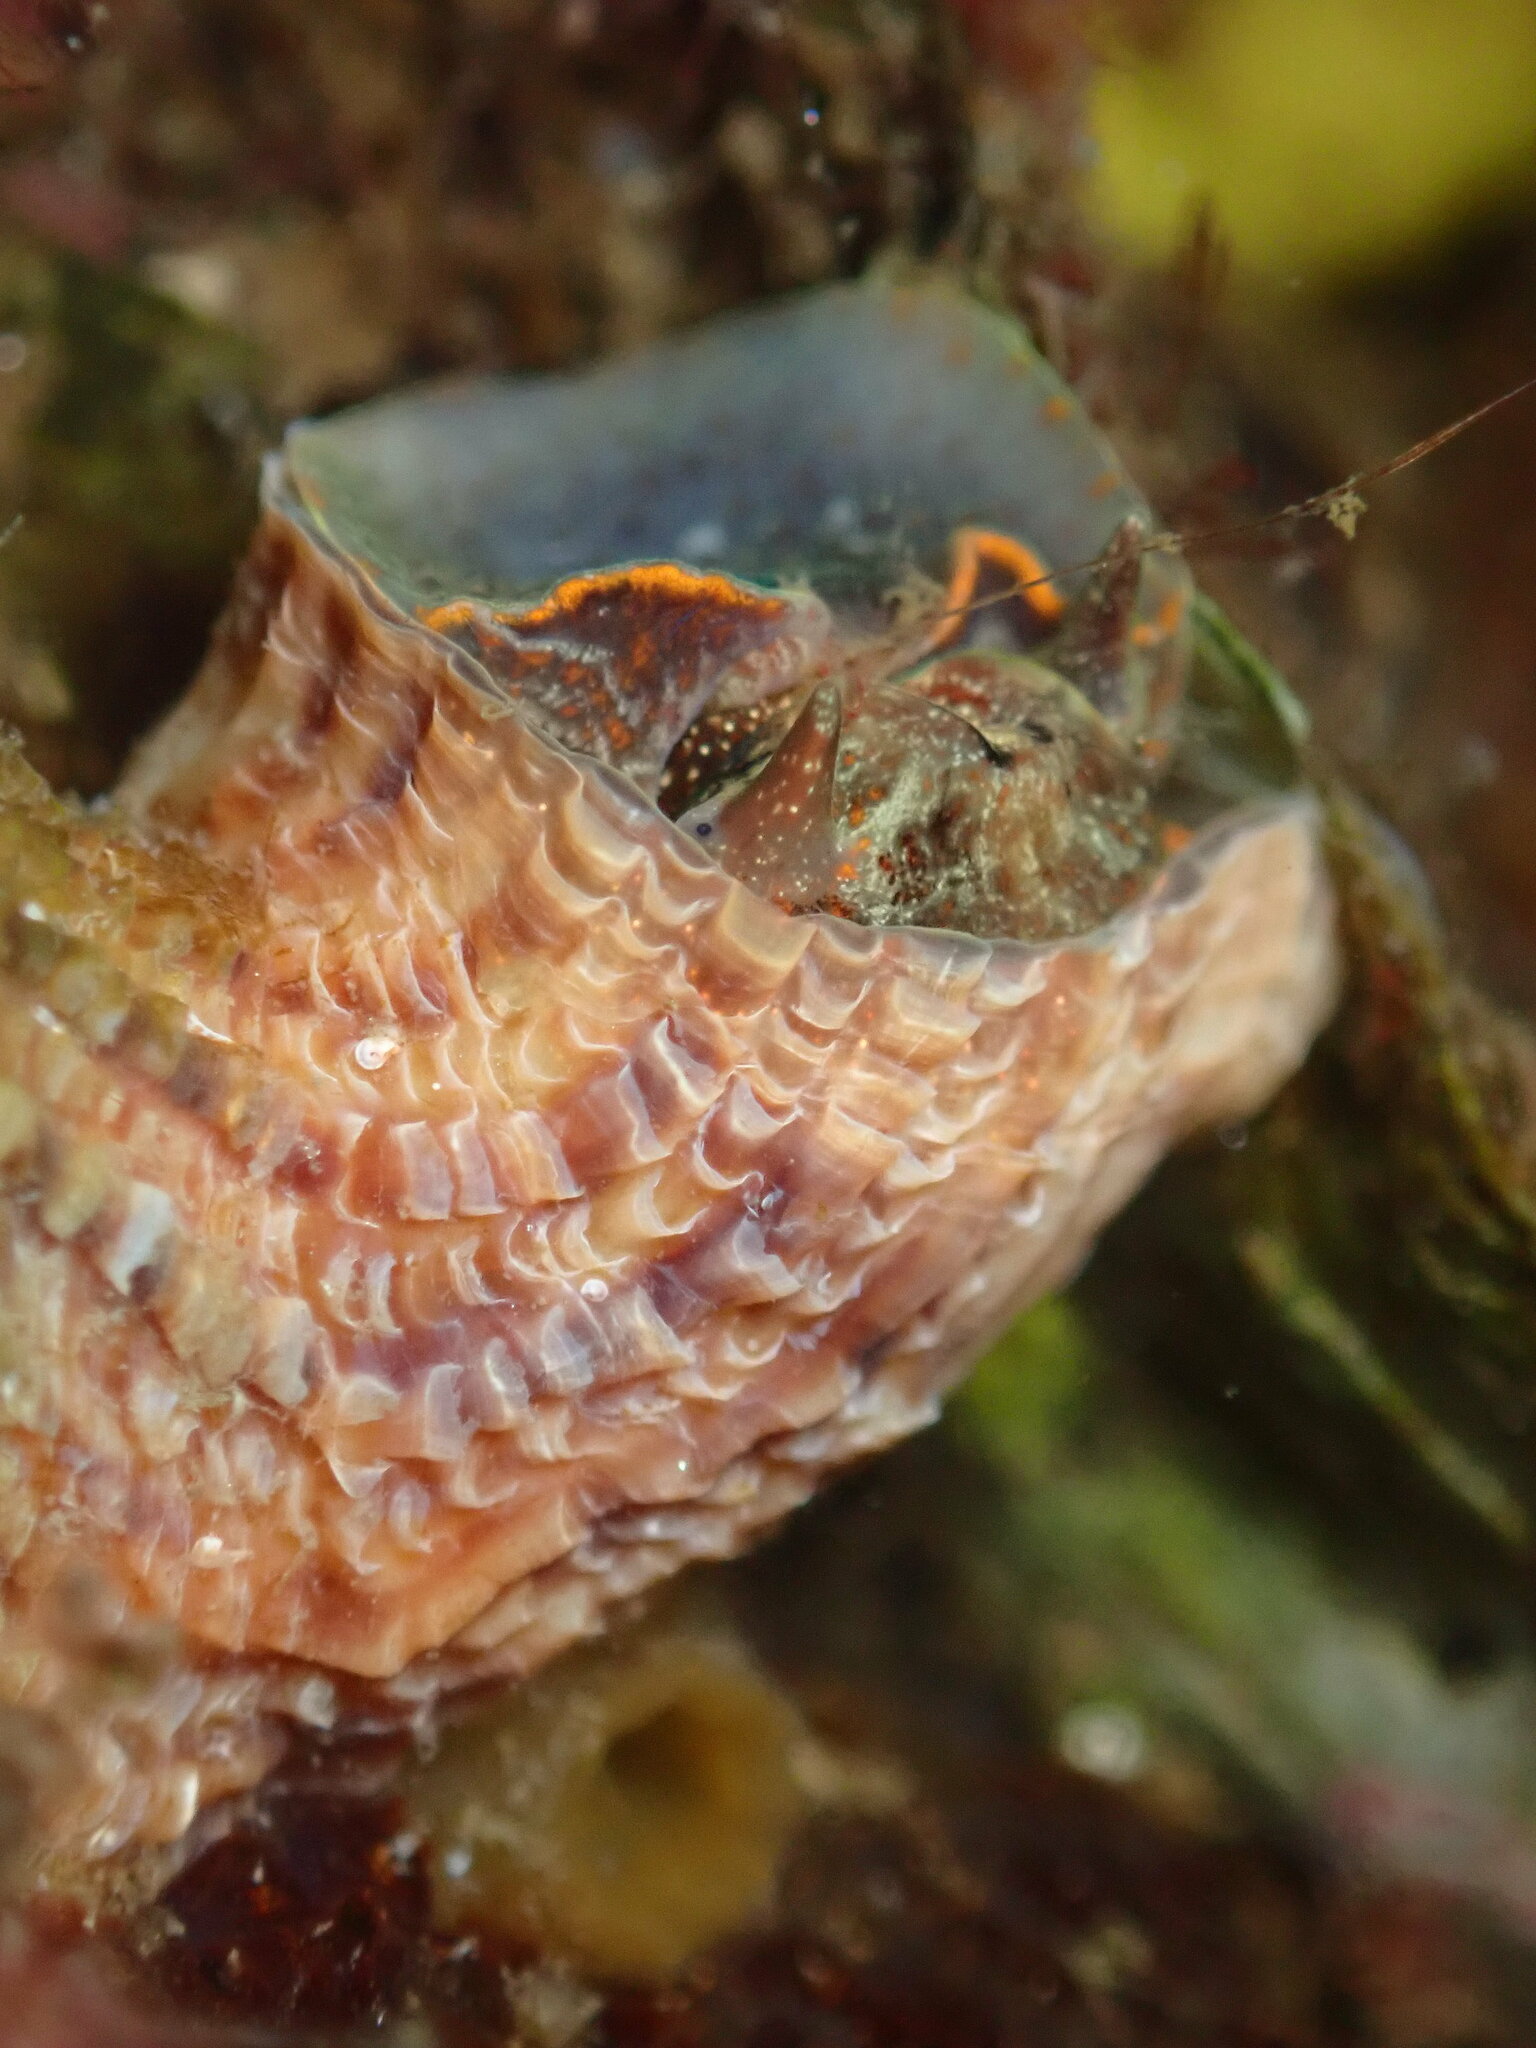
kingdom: Animalia
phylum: Mollusca
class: Gastropoda
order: Littorinimorpha
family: Vermetidae
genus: Thylacodes
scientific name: Thylacodes squamigerus
